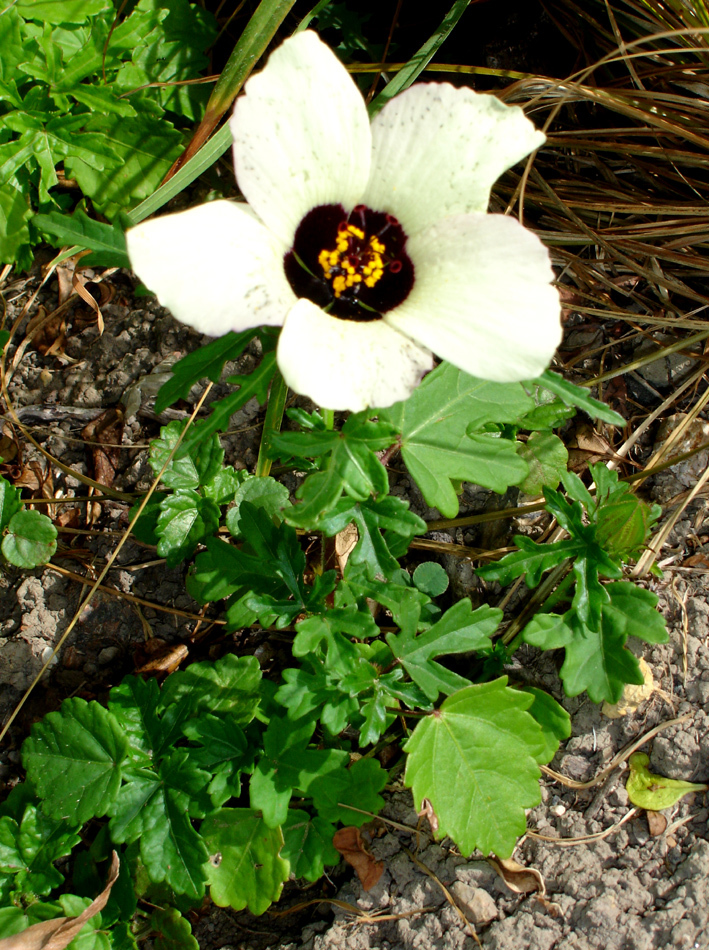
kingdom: Plantae
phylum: Tracheophyta
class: Magnoliopsida
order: Malvales
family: Malvaceae
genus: Hibiscus
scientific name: Hibiscus trionum
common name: Bladder ketmia
